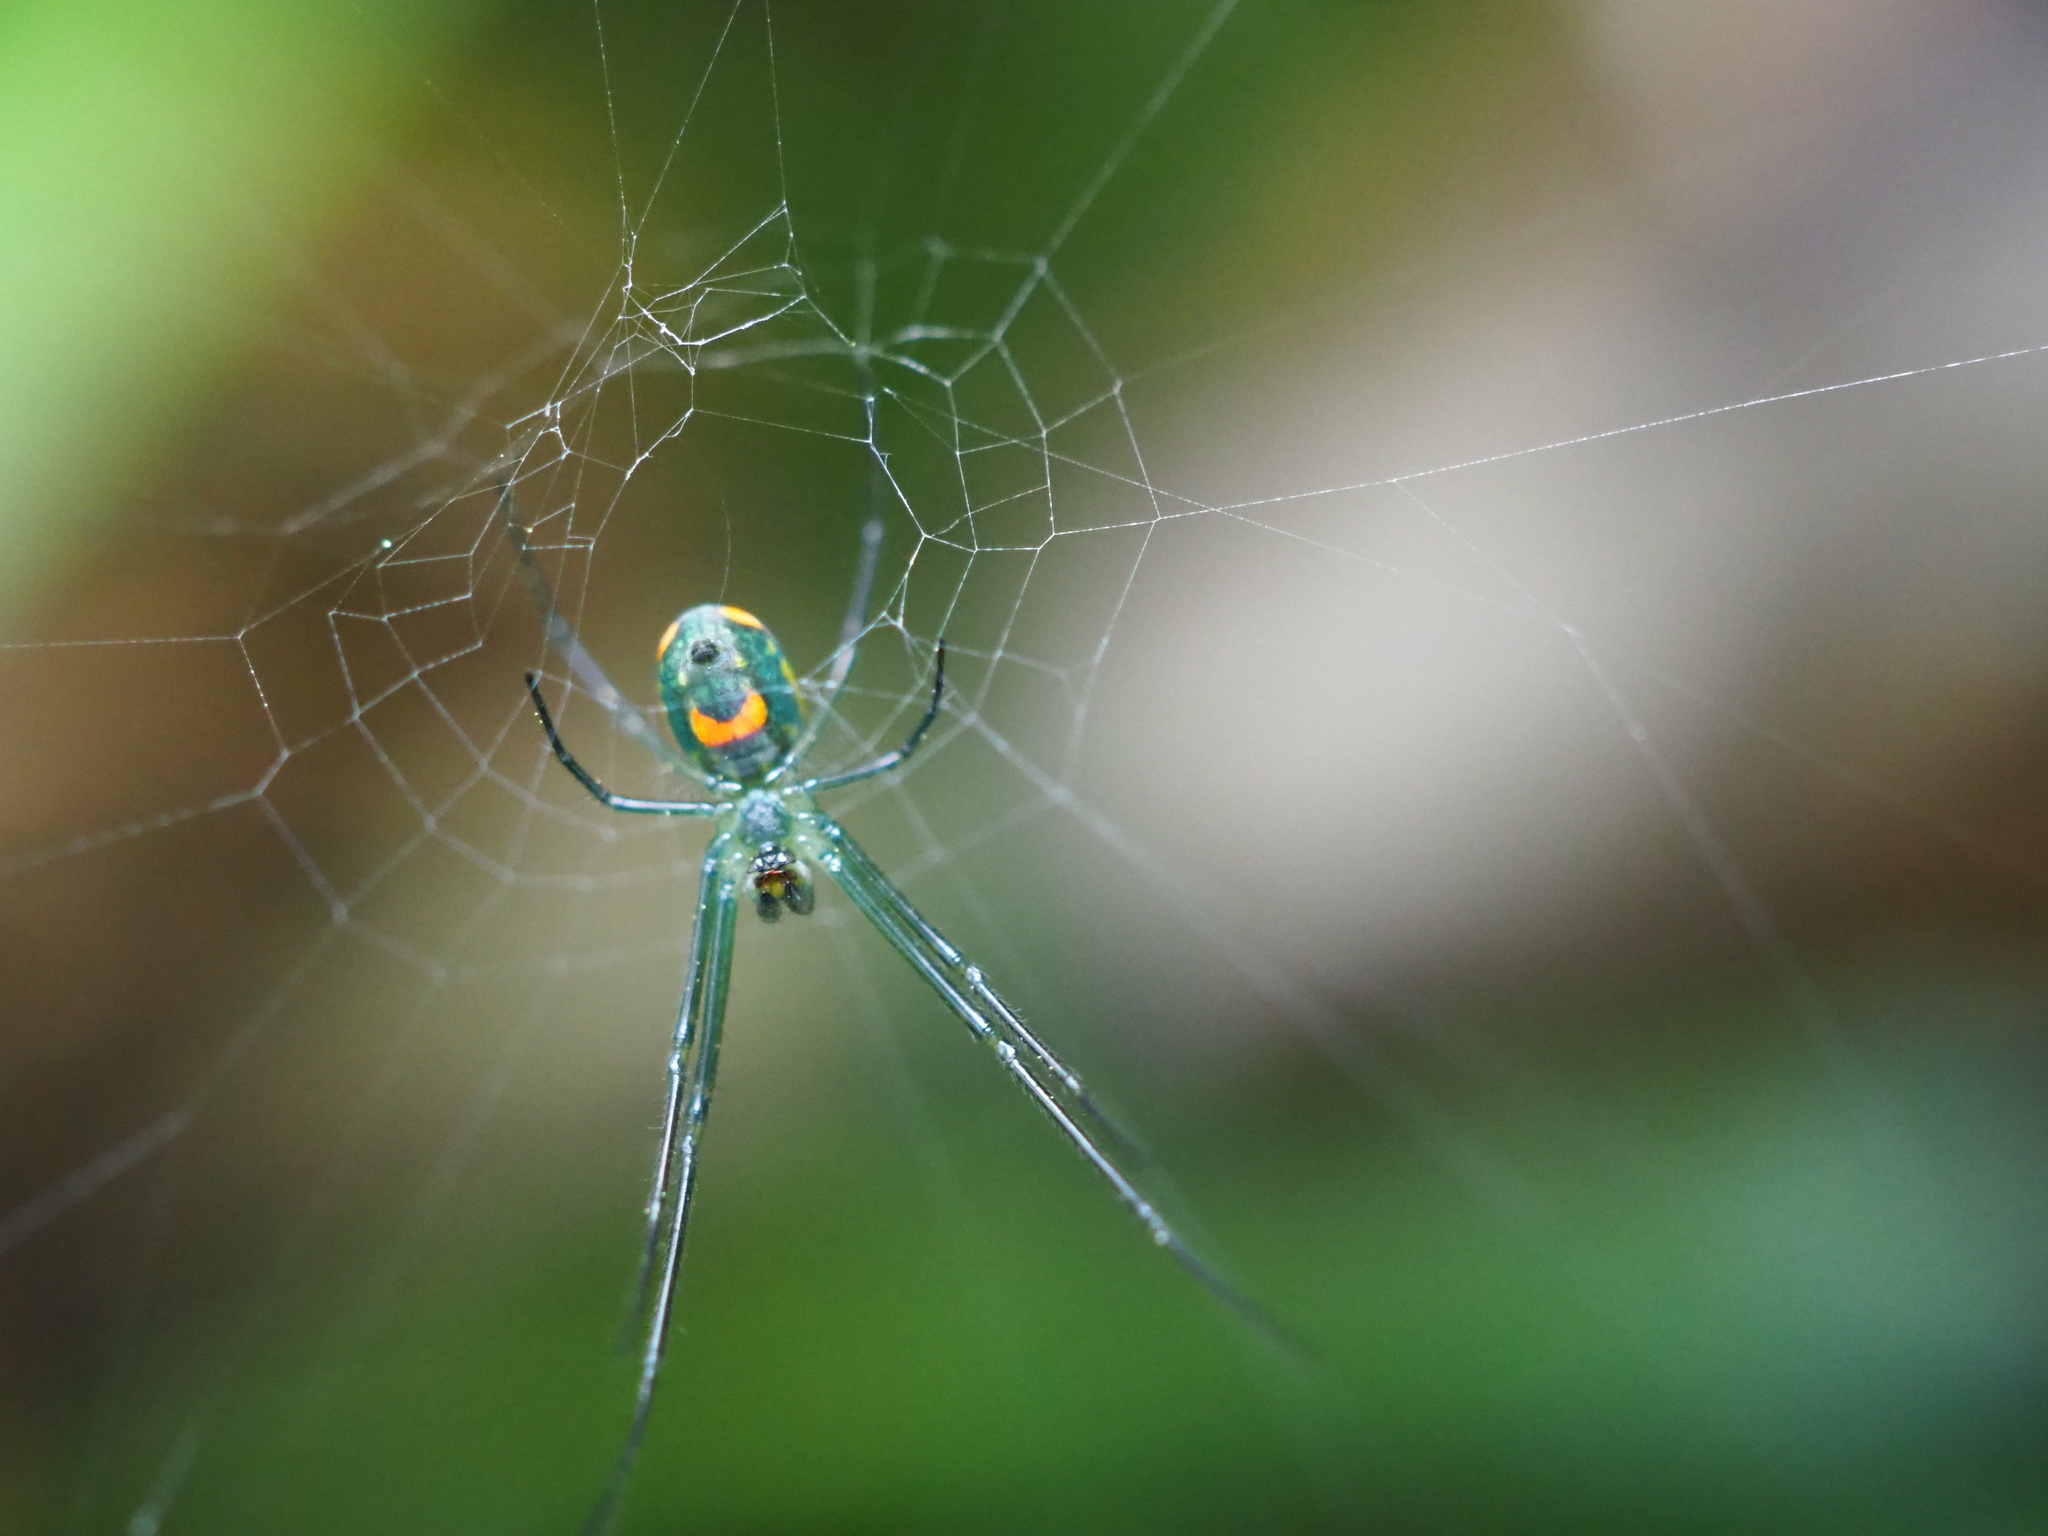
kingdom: Animalia
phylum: Arthropoda
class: Arachnida
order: Araneae
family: Tetragnathidae
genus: Leucauge
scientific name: Leucauge argyrobapta
